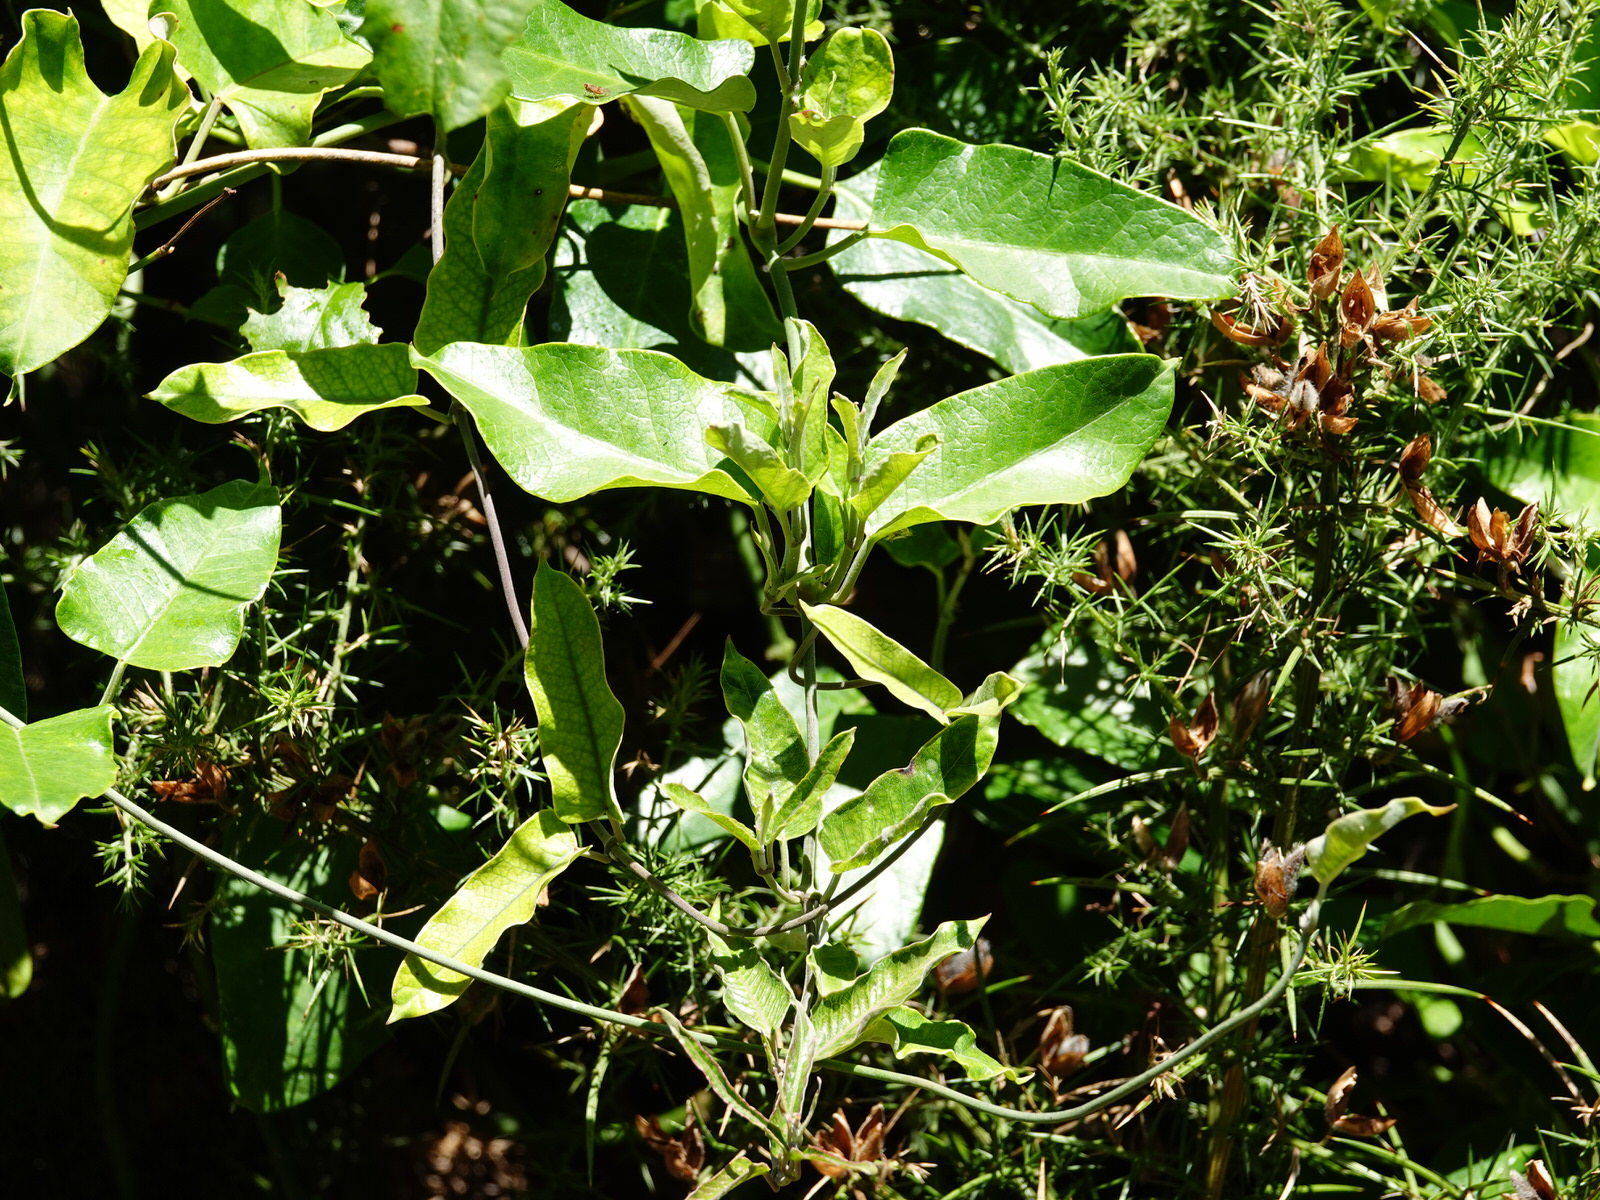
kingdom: Plantae
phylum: Tracheophyta
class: Magnoliopsida
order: Gentianales
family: Apocynaceae
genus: Araujia
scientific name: Araujia sericifera
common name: White bladderflower
